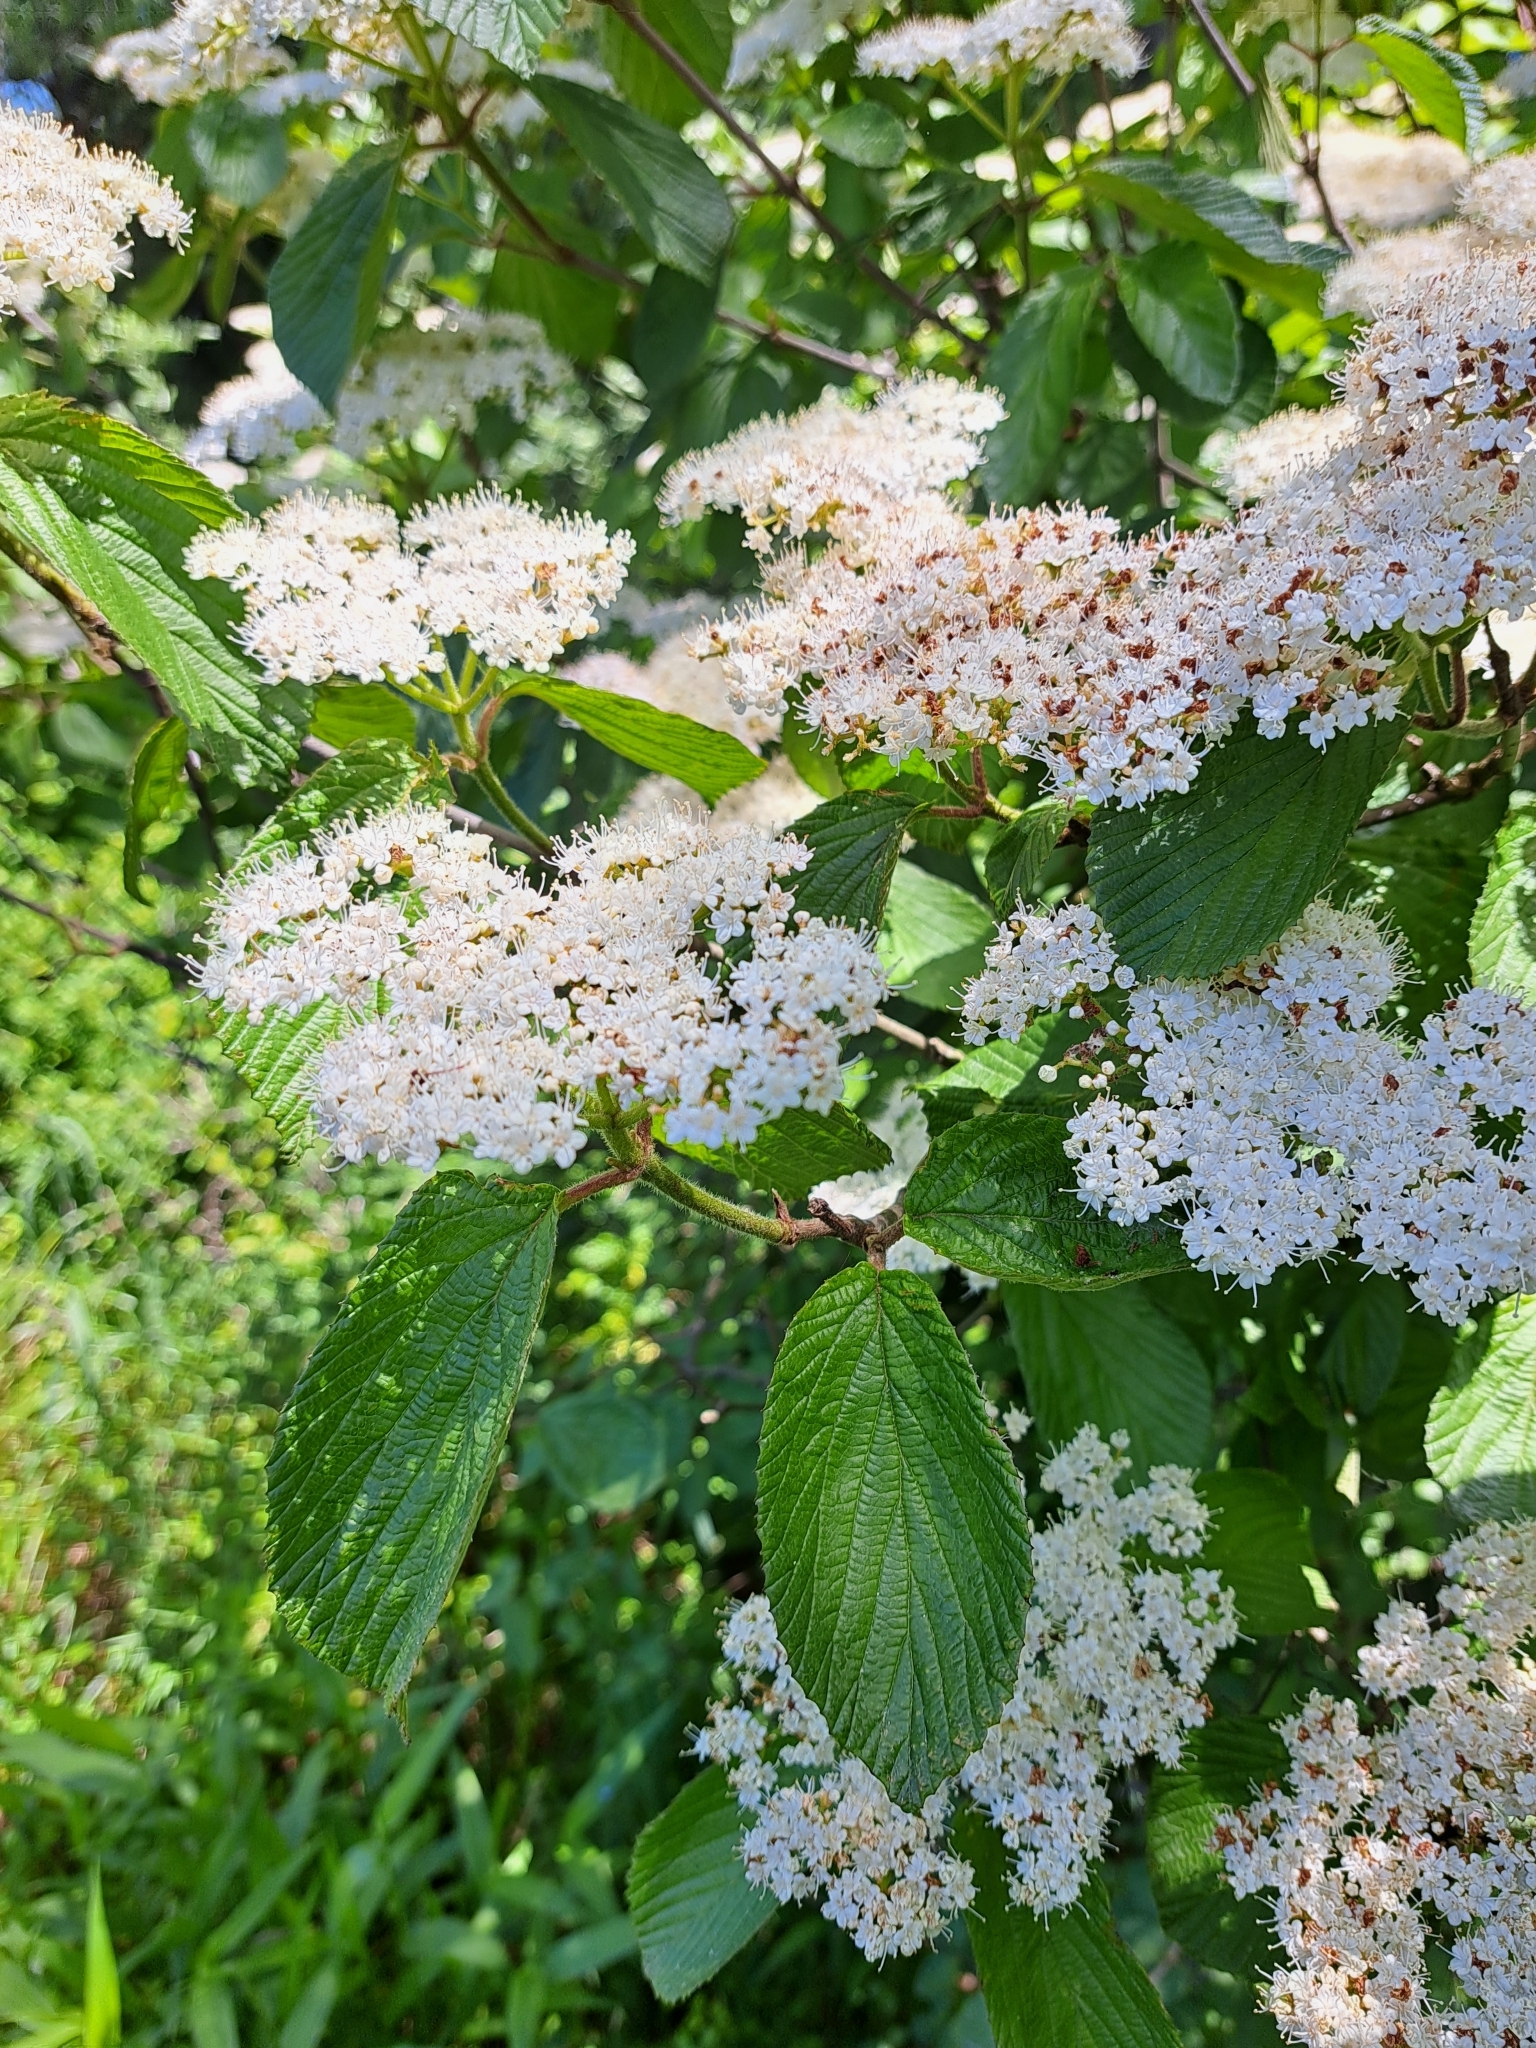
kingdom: Plantae
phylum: Tracheophyta
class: Magnoliopsida
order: Dipsacales
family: Viburnaceae
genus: Viburnum
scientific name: Viburnum dilatatum
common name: Linden arrowwood
